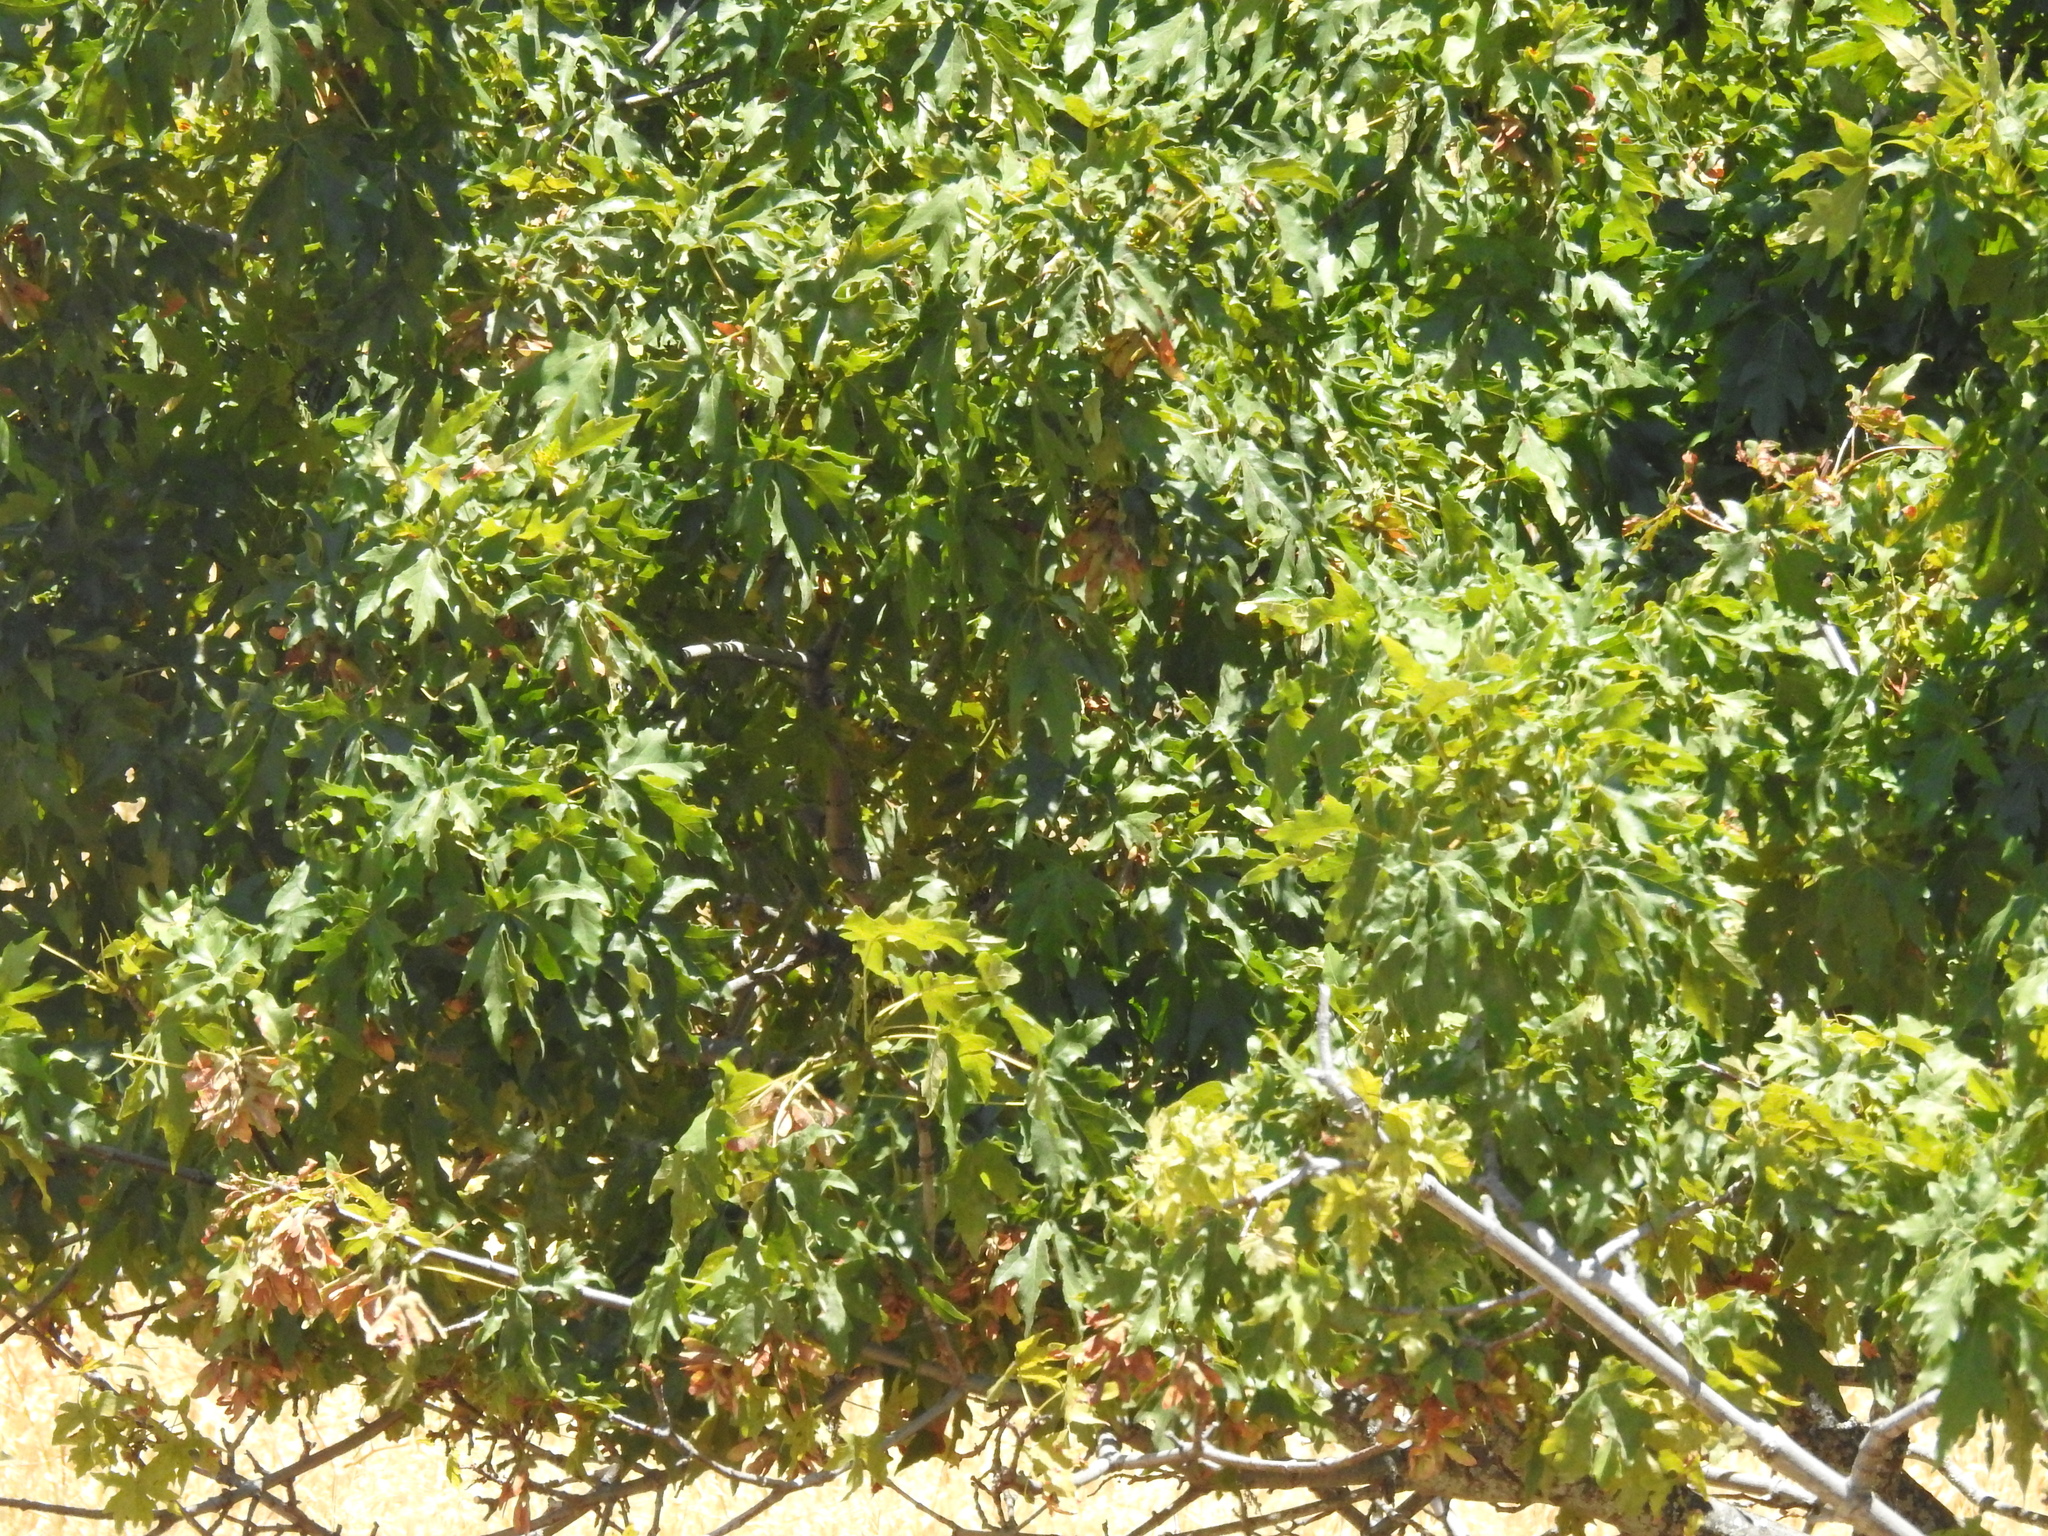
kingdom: Plantae
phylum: Tracheophyta
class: Magnoliopsida
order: Sapindales
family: Sapindaceae
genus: Acer
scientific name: Acer macrophyllum
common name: Oregon maple
